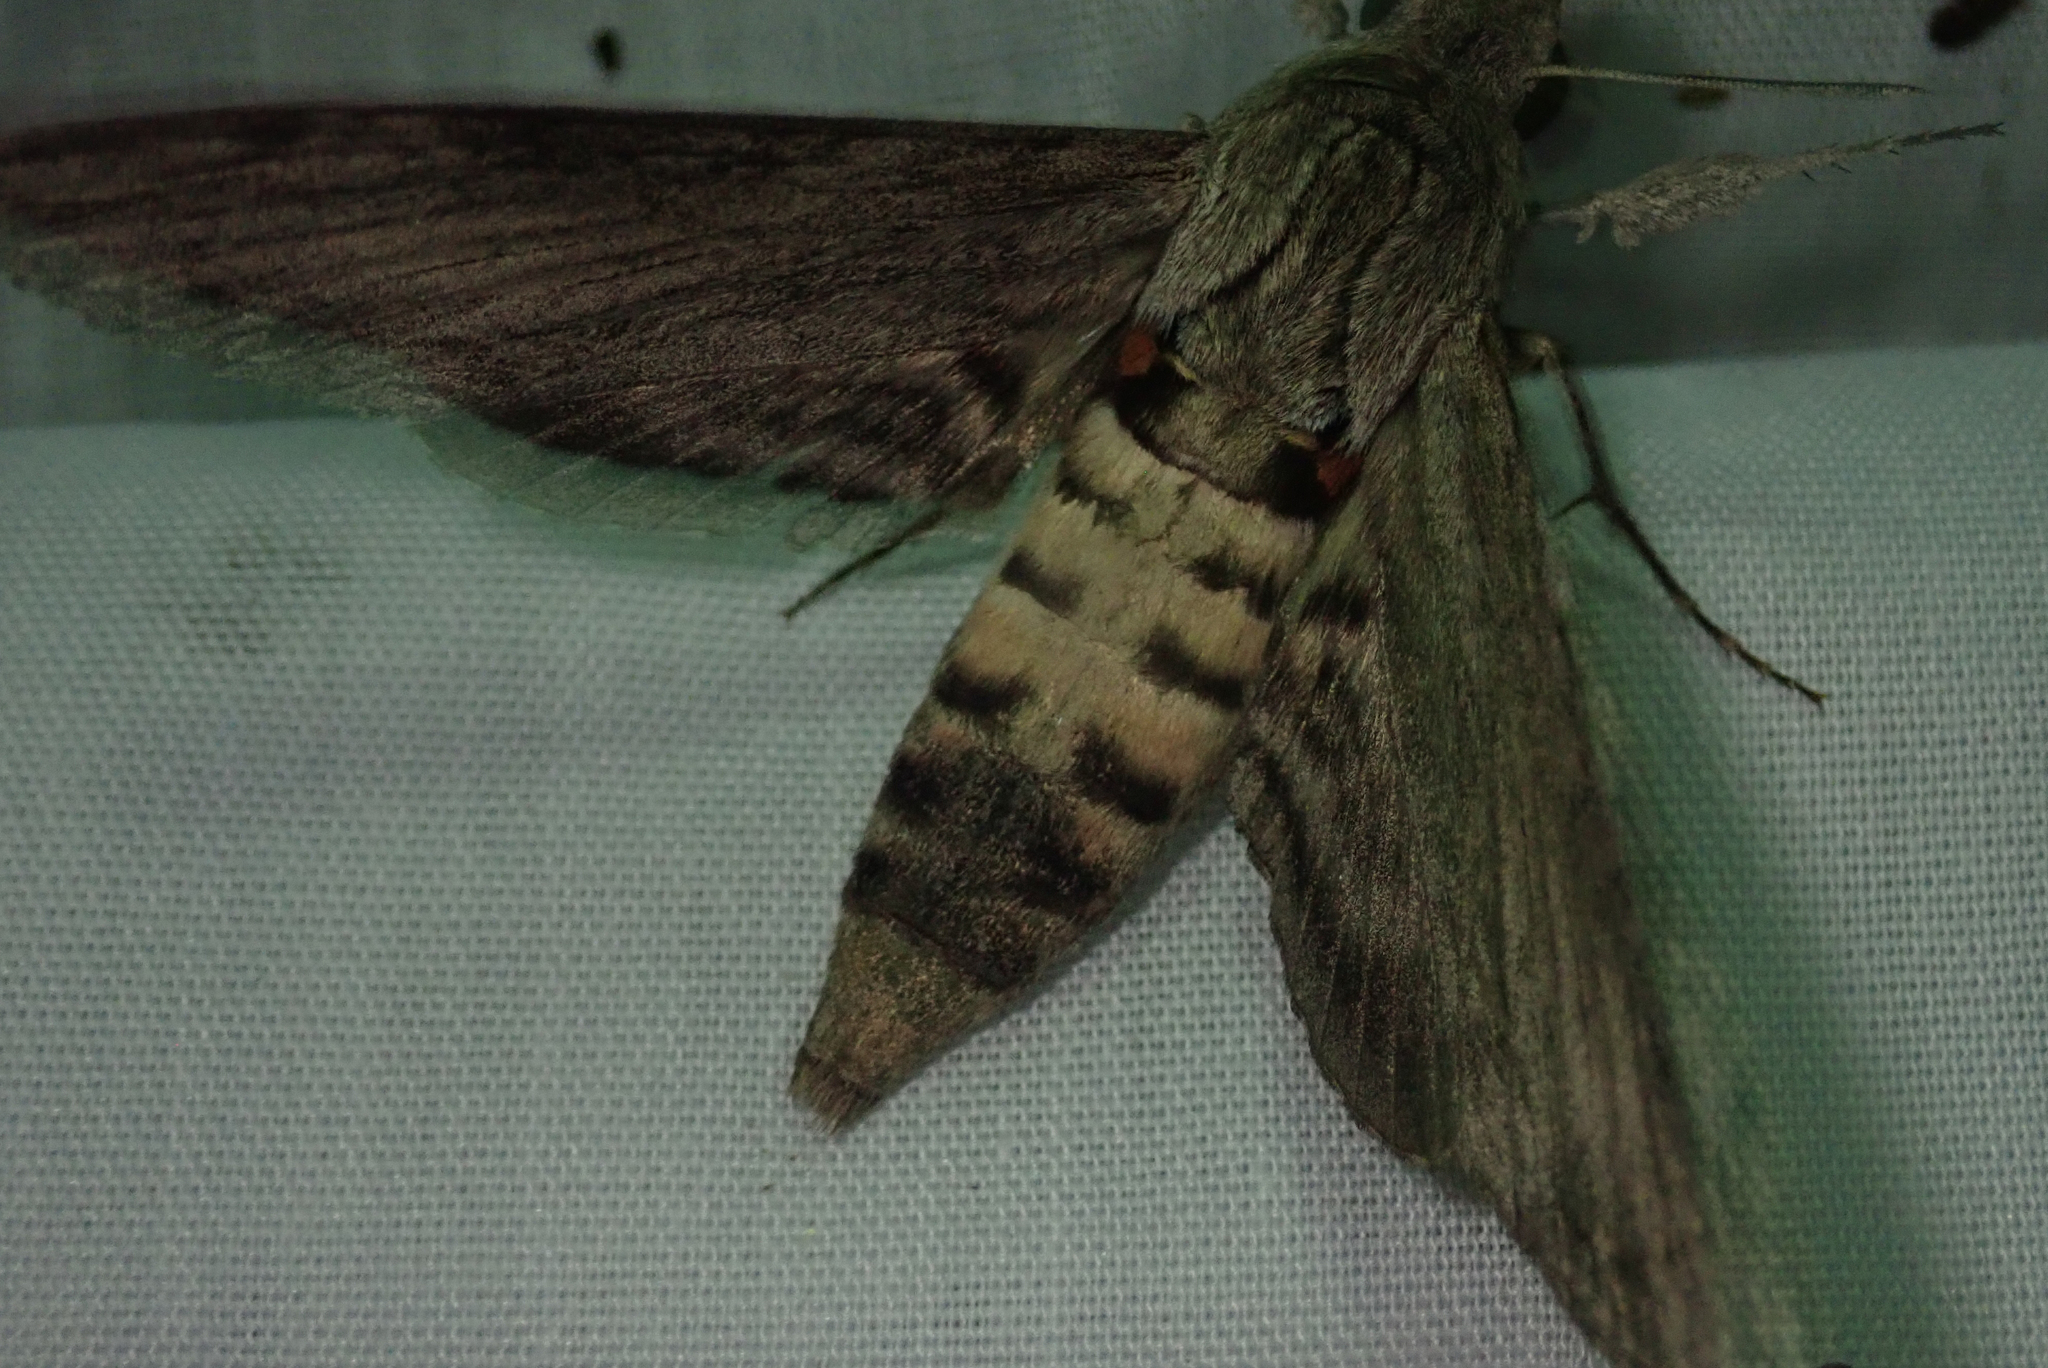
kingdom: Animalia
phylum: Arthropoda
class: Insecta
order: Lepidoptera
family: Sphingidae
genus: Agrius
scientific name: Agrius convolvuli
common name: Convolvulus hawkmoth
